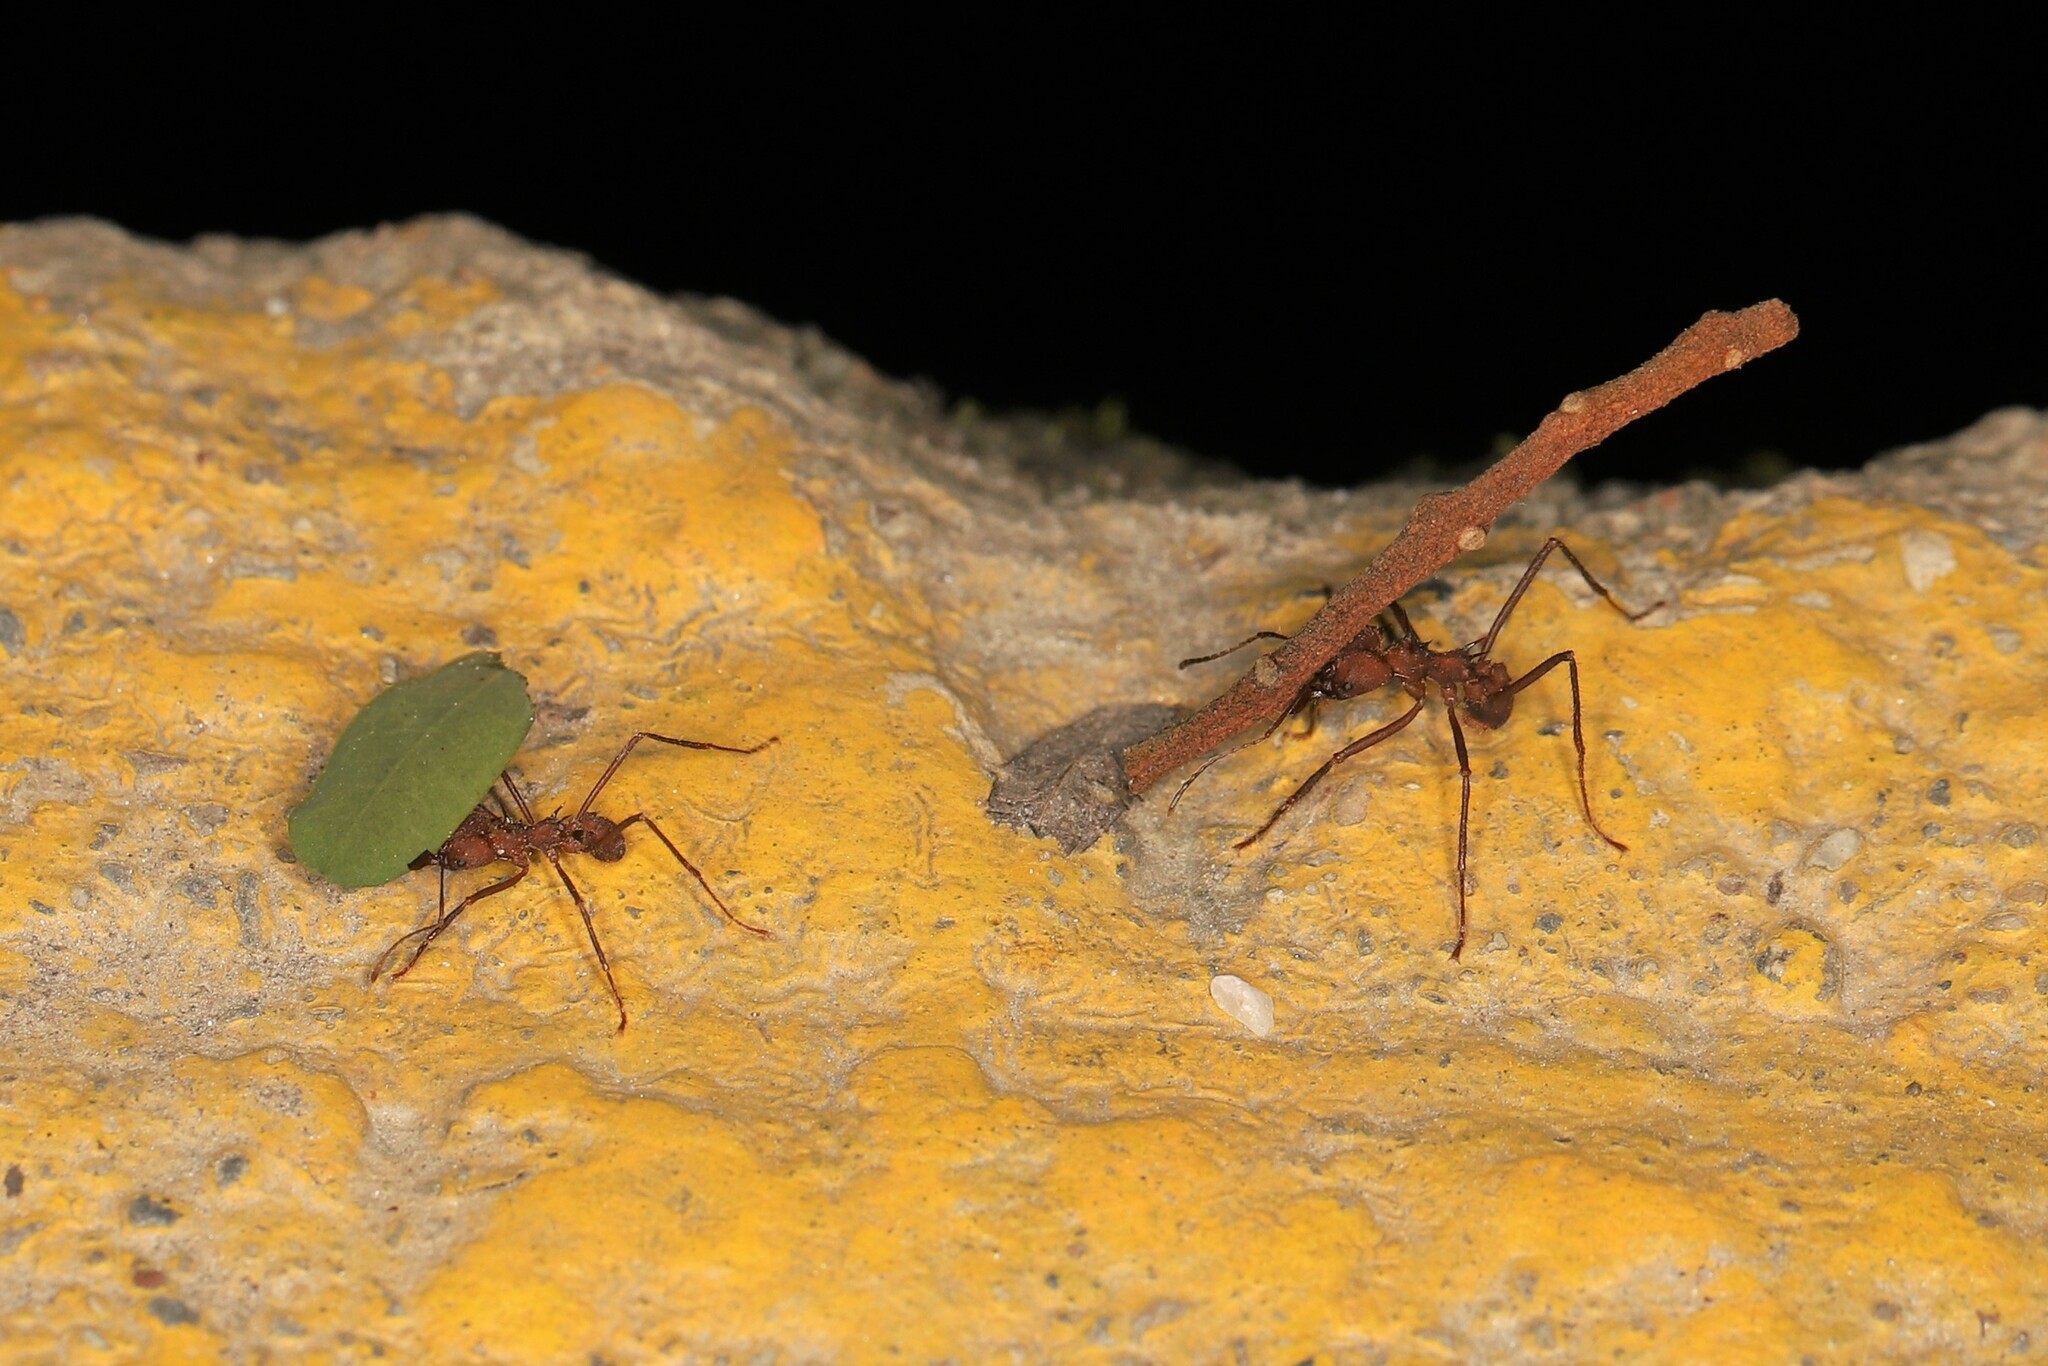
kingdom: Animalia
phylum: Arthropoda
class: Insecta
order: Hymenoptera
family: Formicidae
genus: Atta
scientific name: Atta colombica
